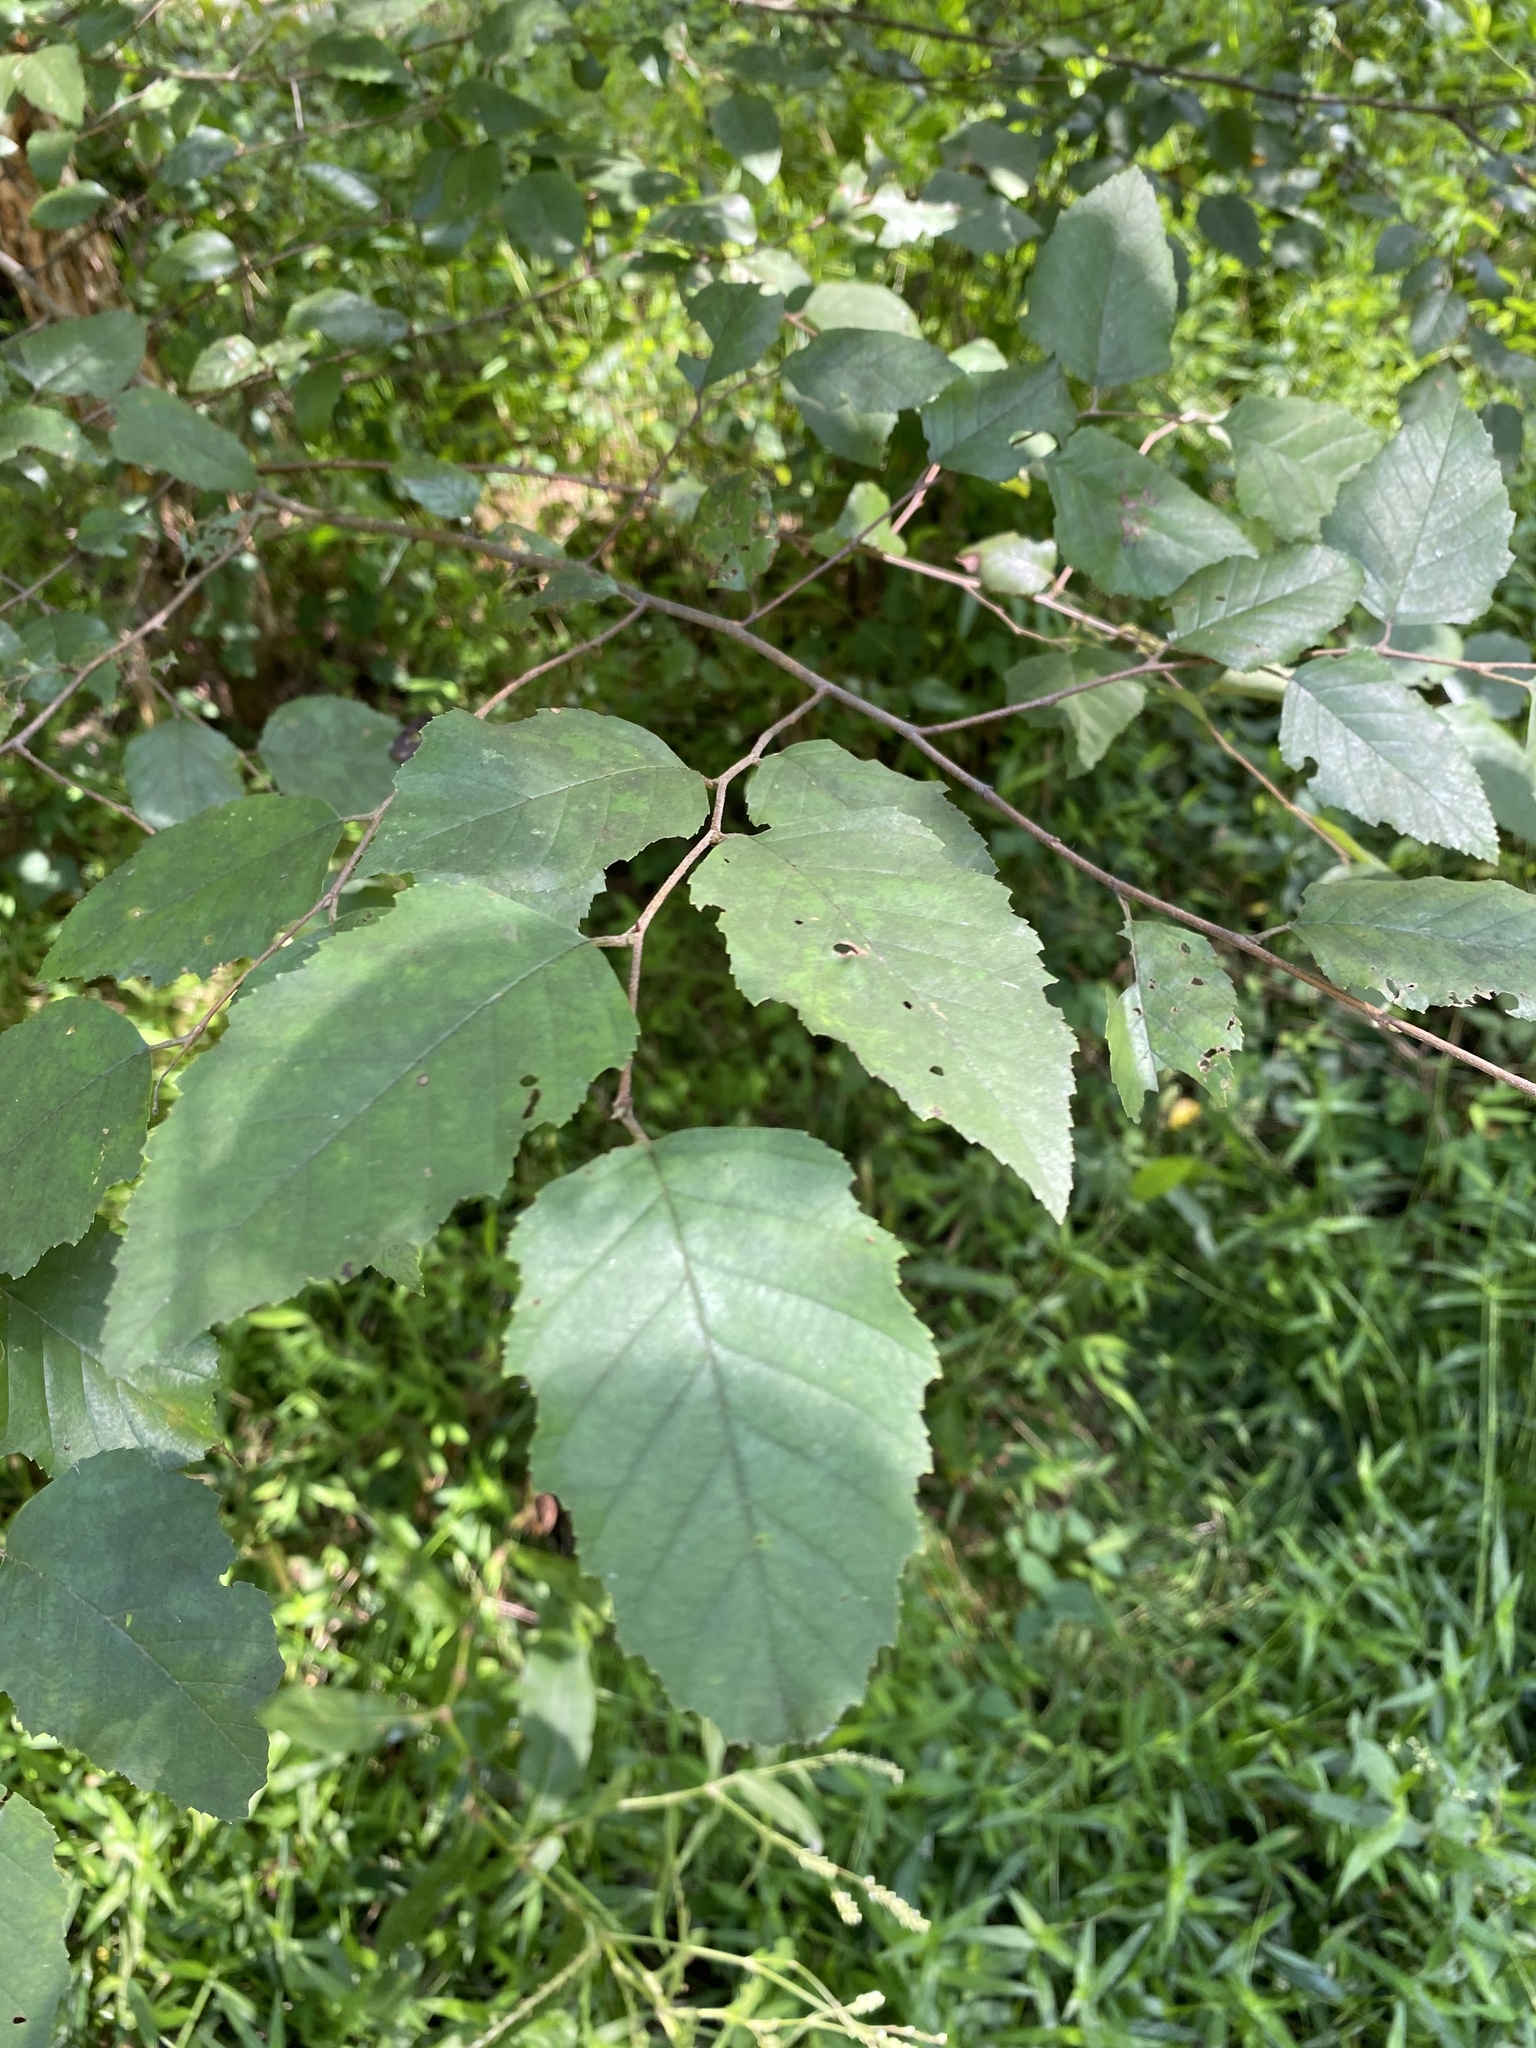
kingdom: Plantae
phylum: Tracheophyta
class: Magnoliopsida
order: Fagales
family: Betulaceae
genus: Betula
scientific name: Betula nigra
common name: Black birch
